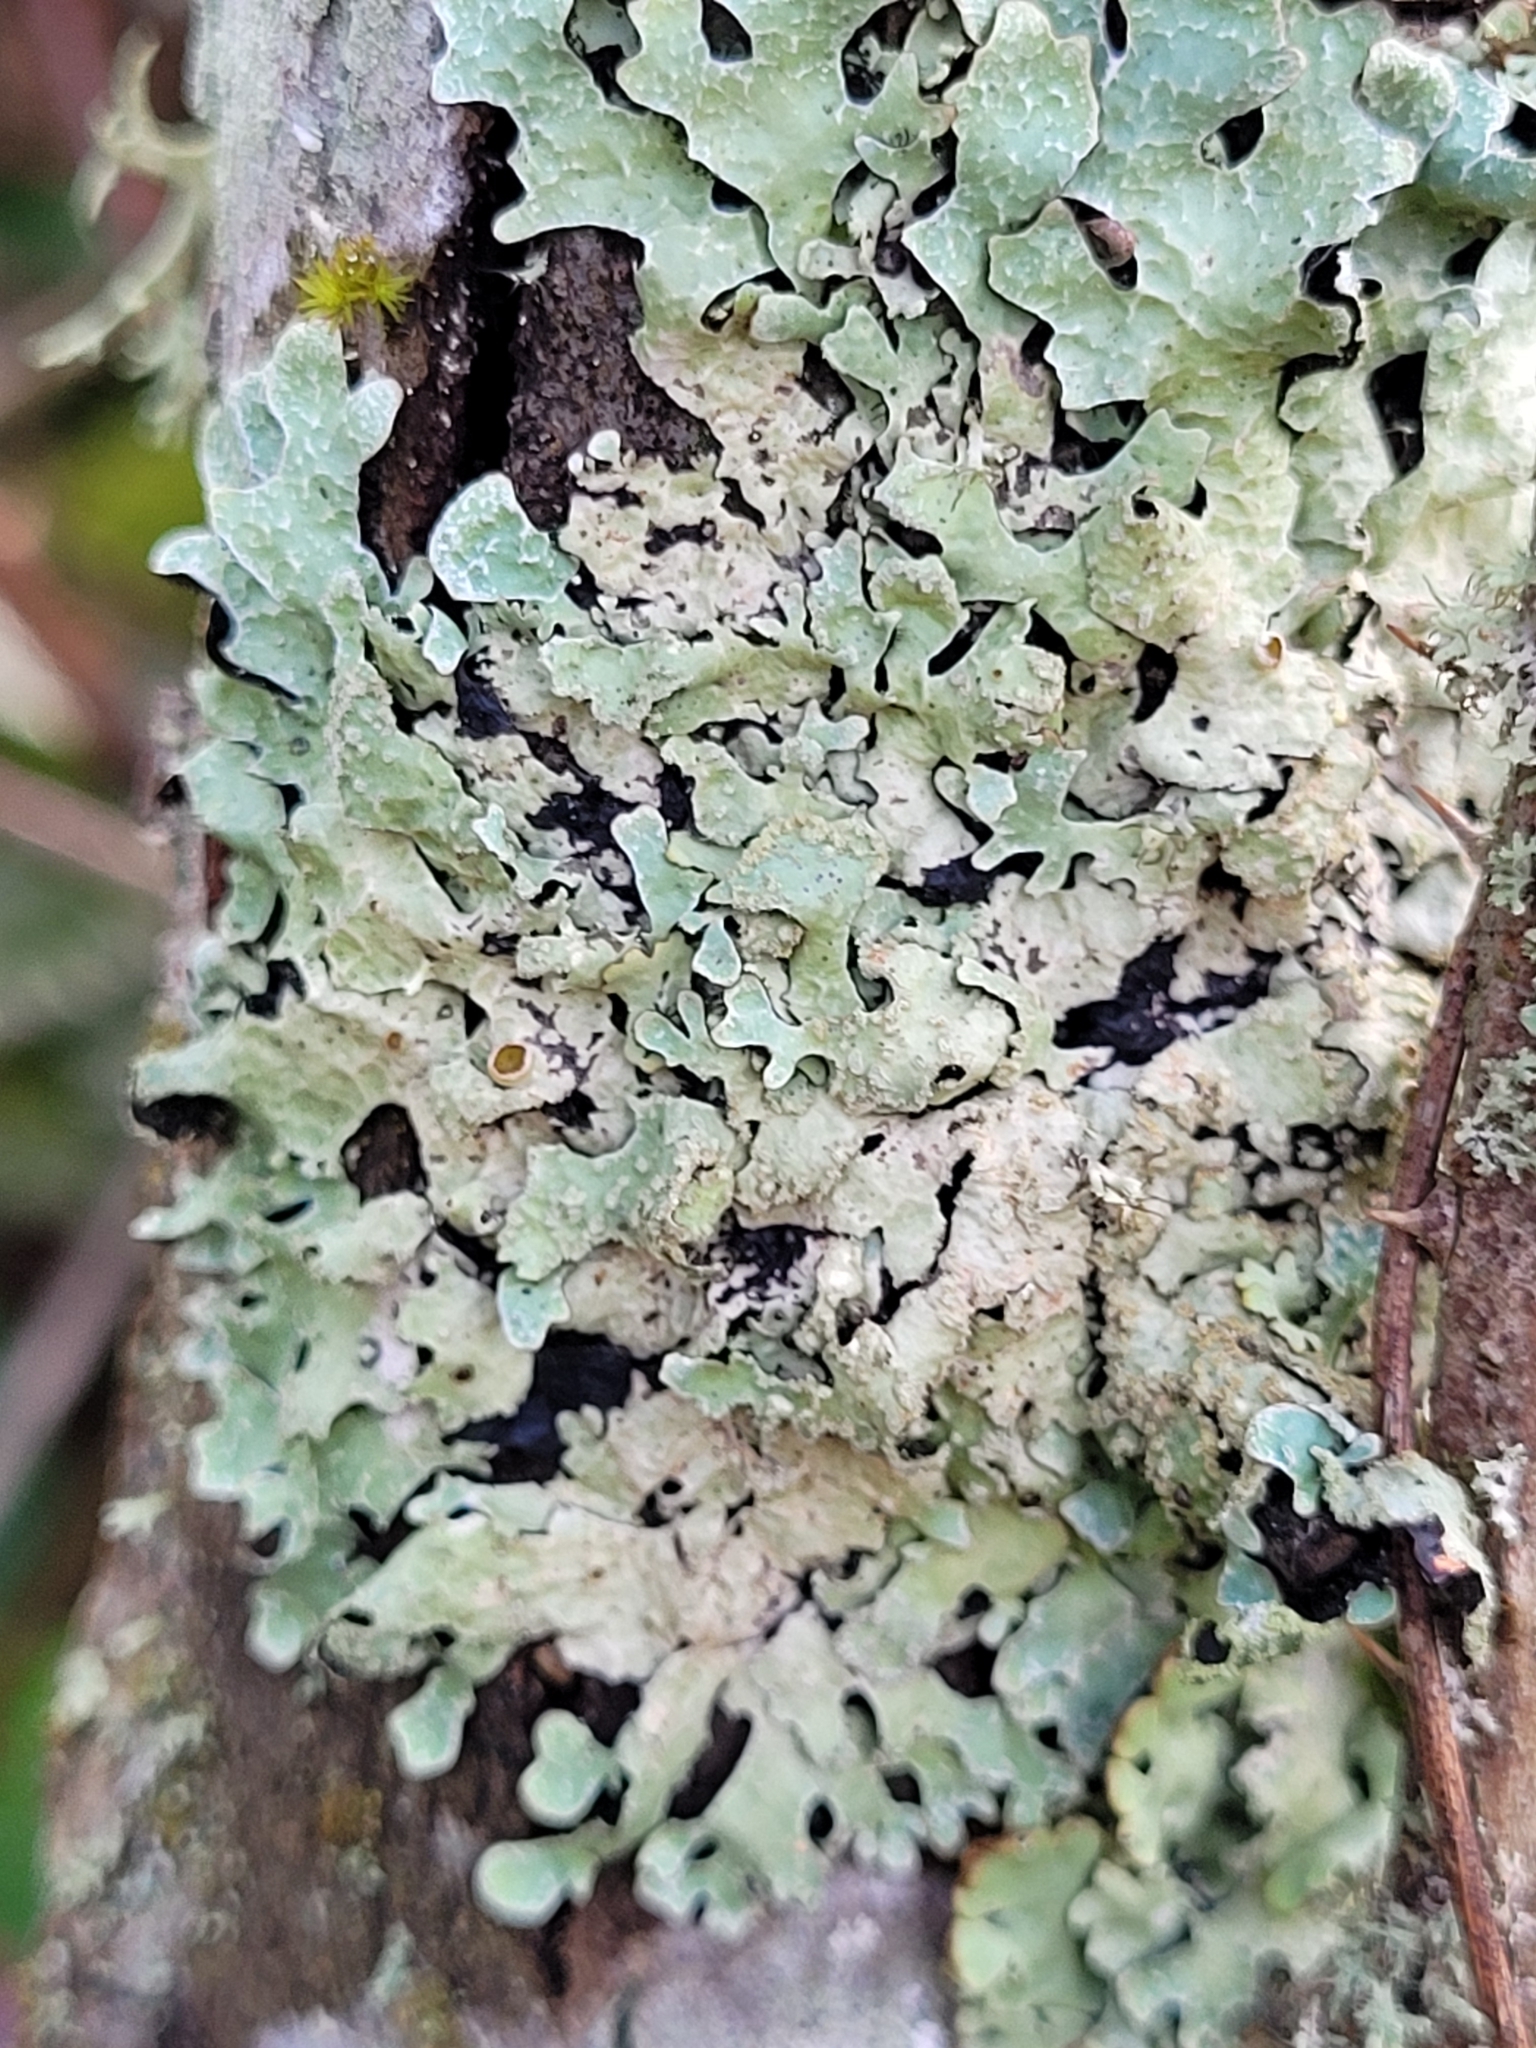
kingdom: Fungi
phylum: Ascomycota
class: Lecanoromycetes
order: Lecanorales
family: Parmeliaceae
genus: Parmelia
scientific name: Parmelia sulcata
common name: Netted shield lichen
